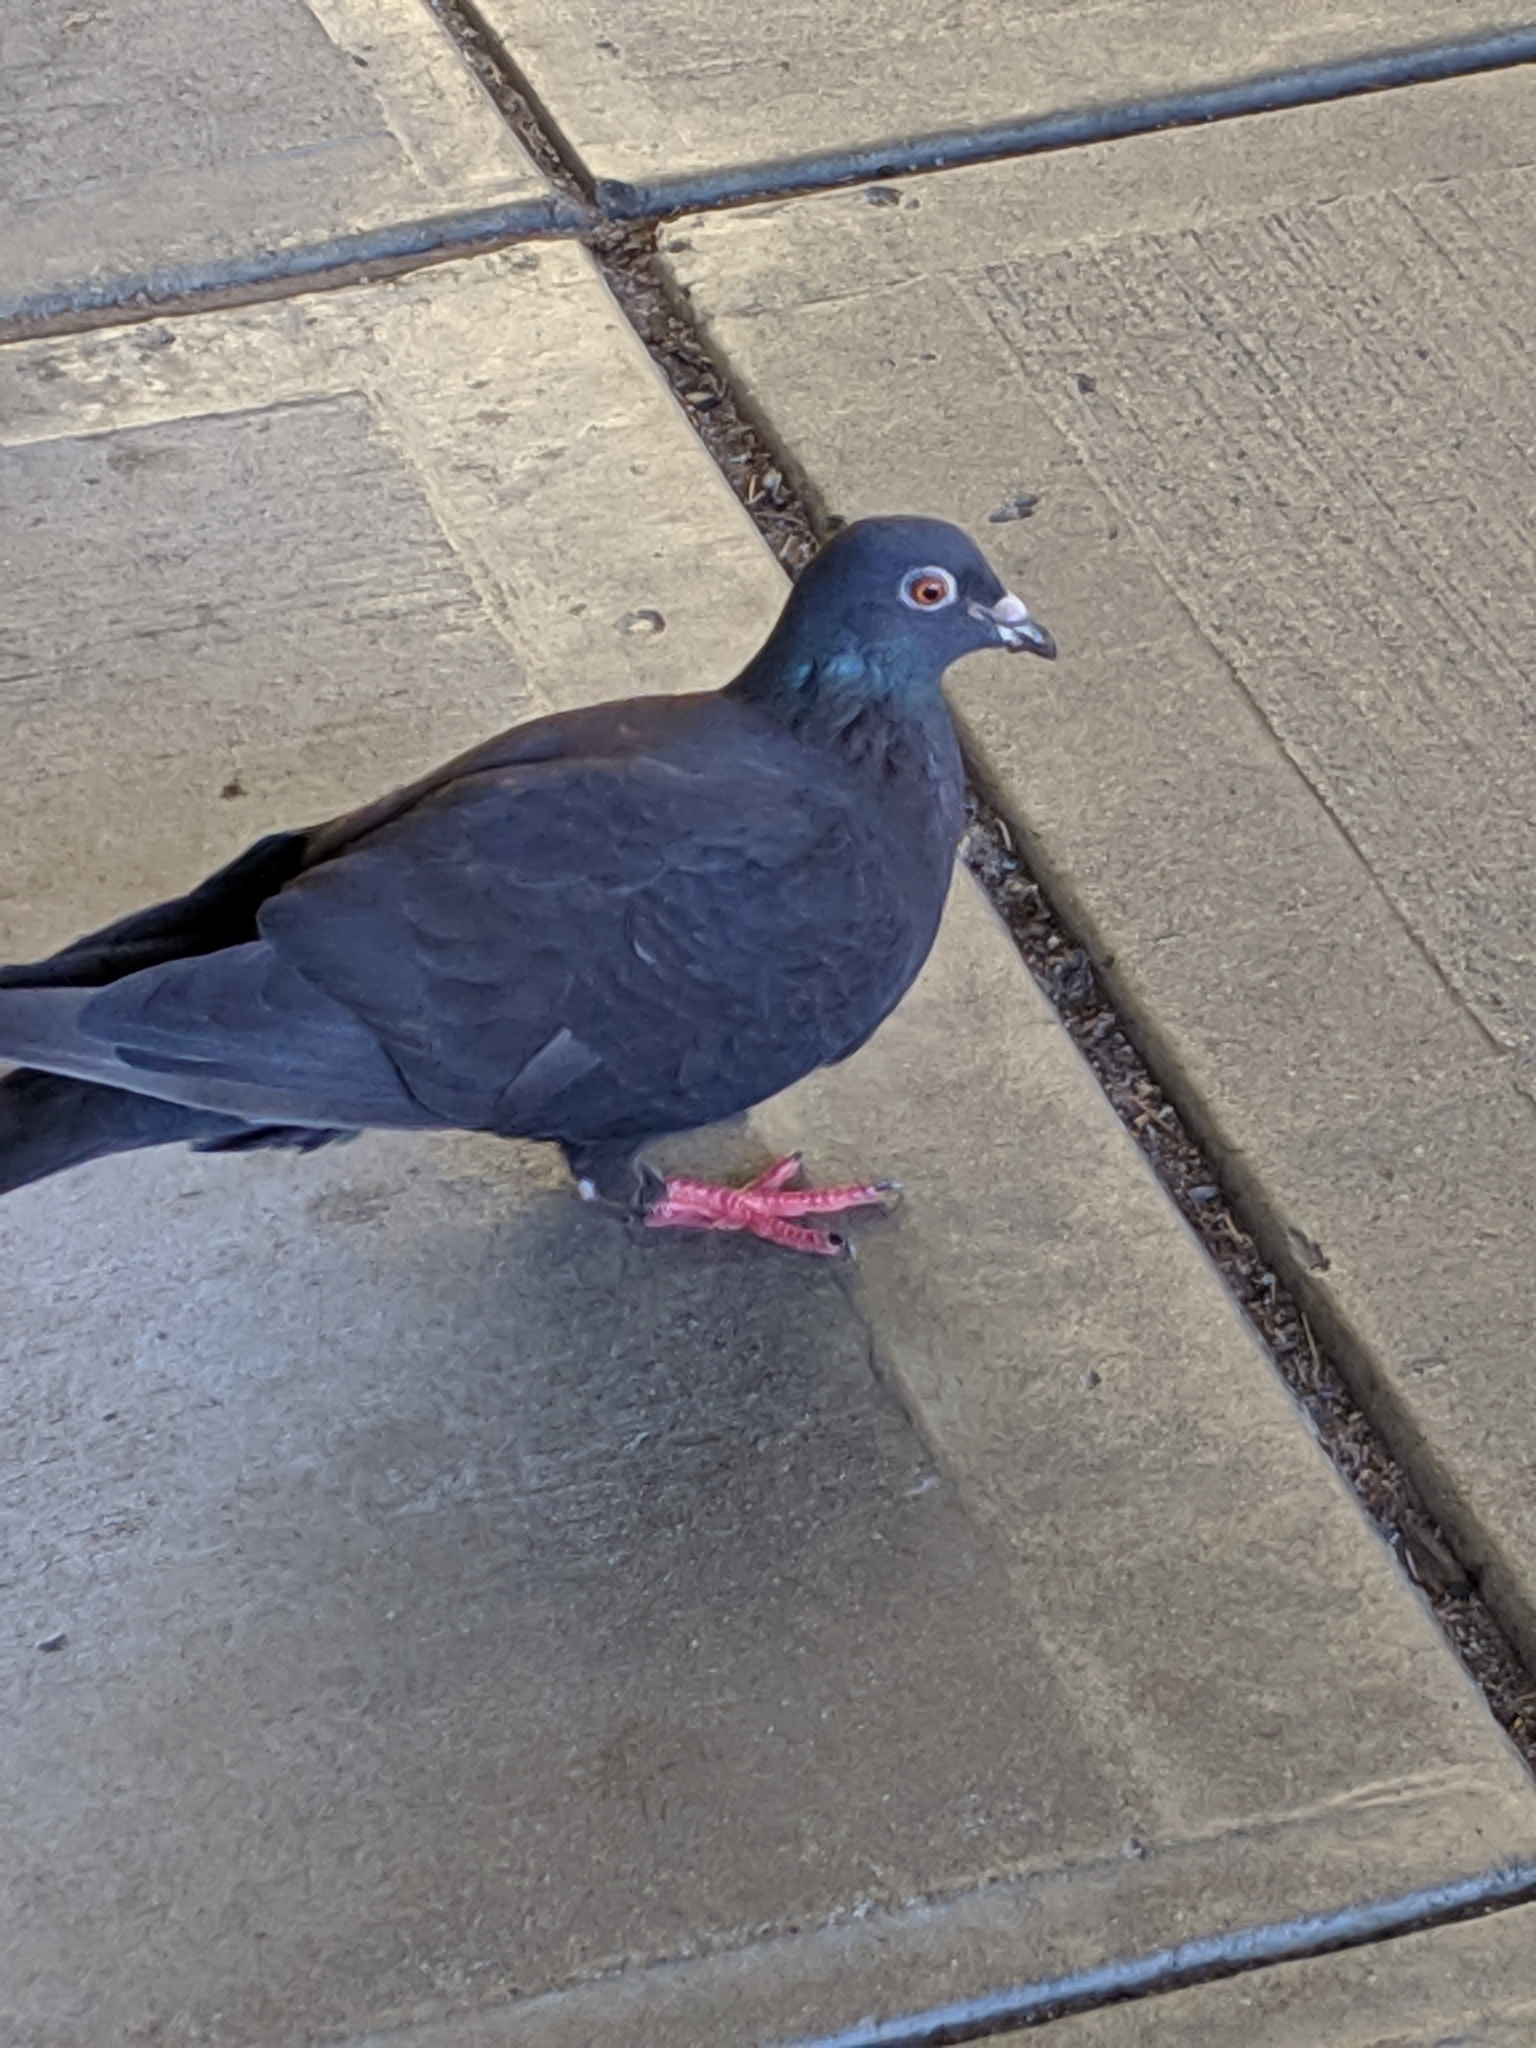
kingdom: Animalia
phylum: Chordata
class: Aves
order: Columbiformes
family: Columbidae
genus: Columba
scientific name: Columba livia
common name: Rock pigeon
